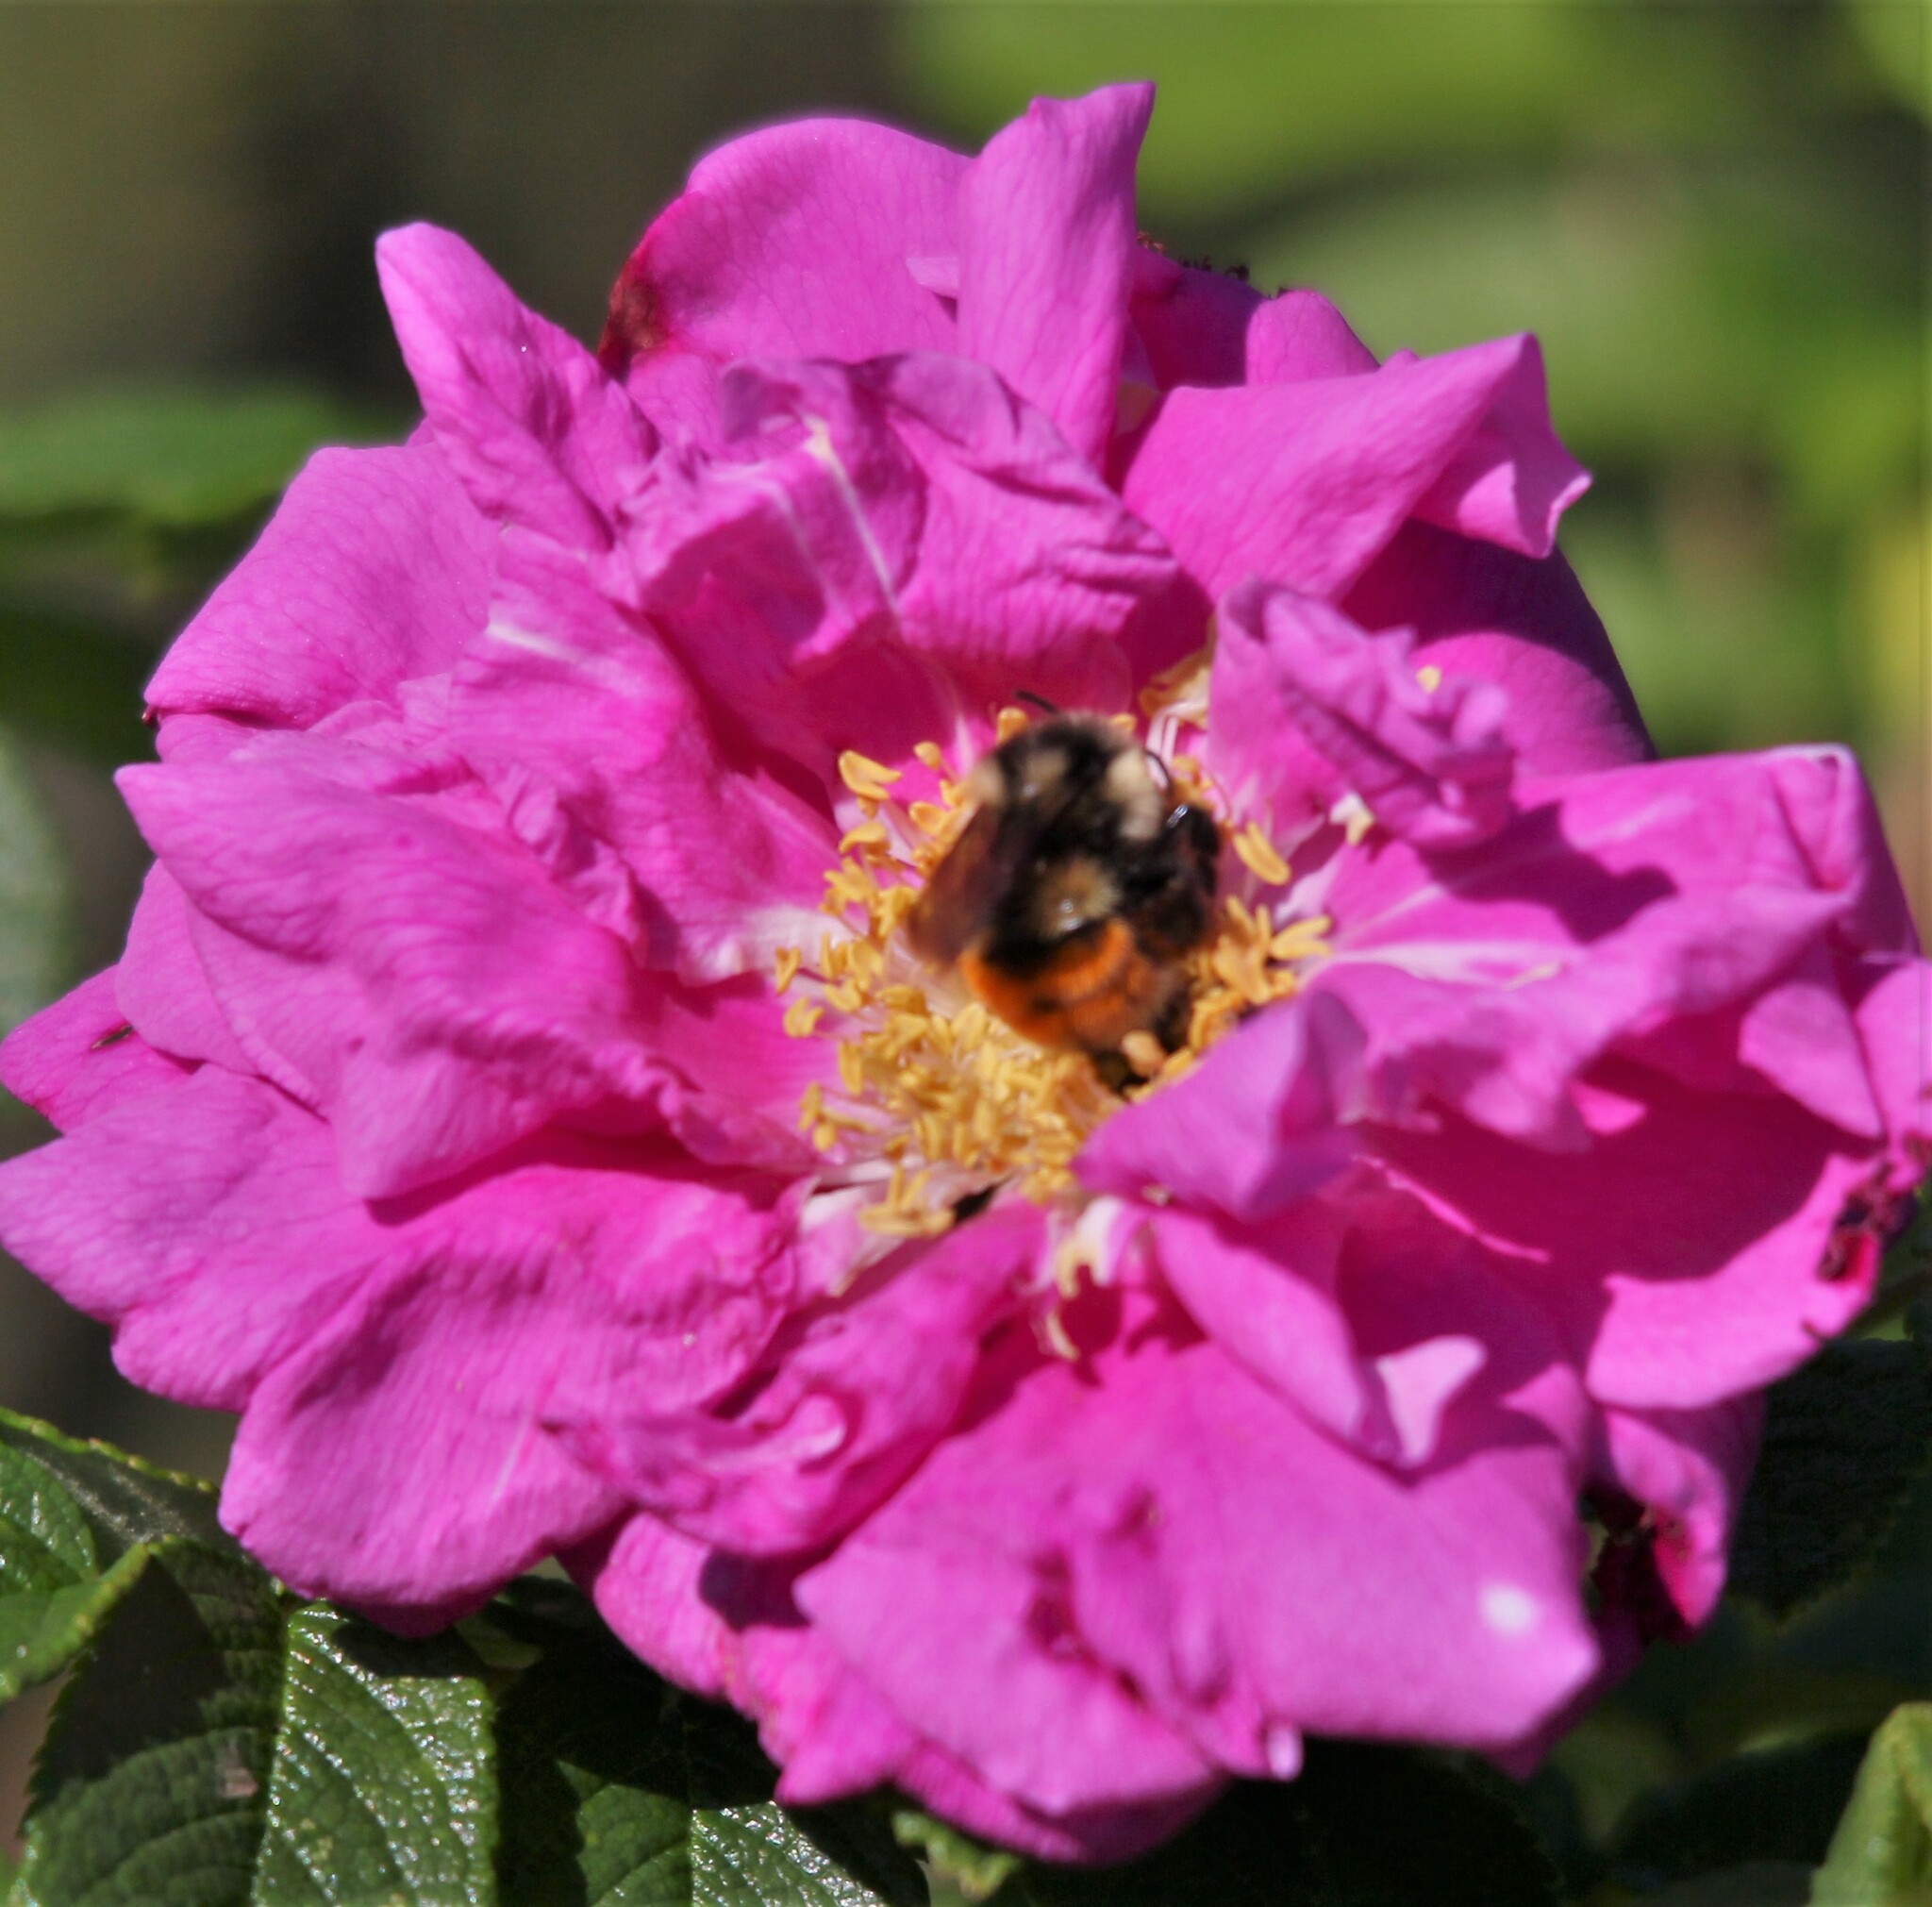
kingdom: Animalia
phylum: Arthropoda
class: Insecta
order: Hymenoptera
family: Apidae
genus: Bombus
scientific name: Bombus ternarius
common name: Tri-colored bumble bee
